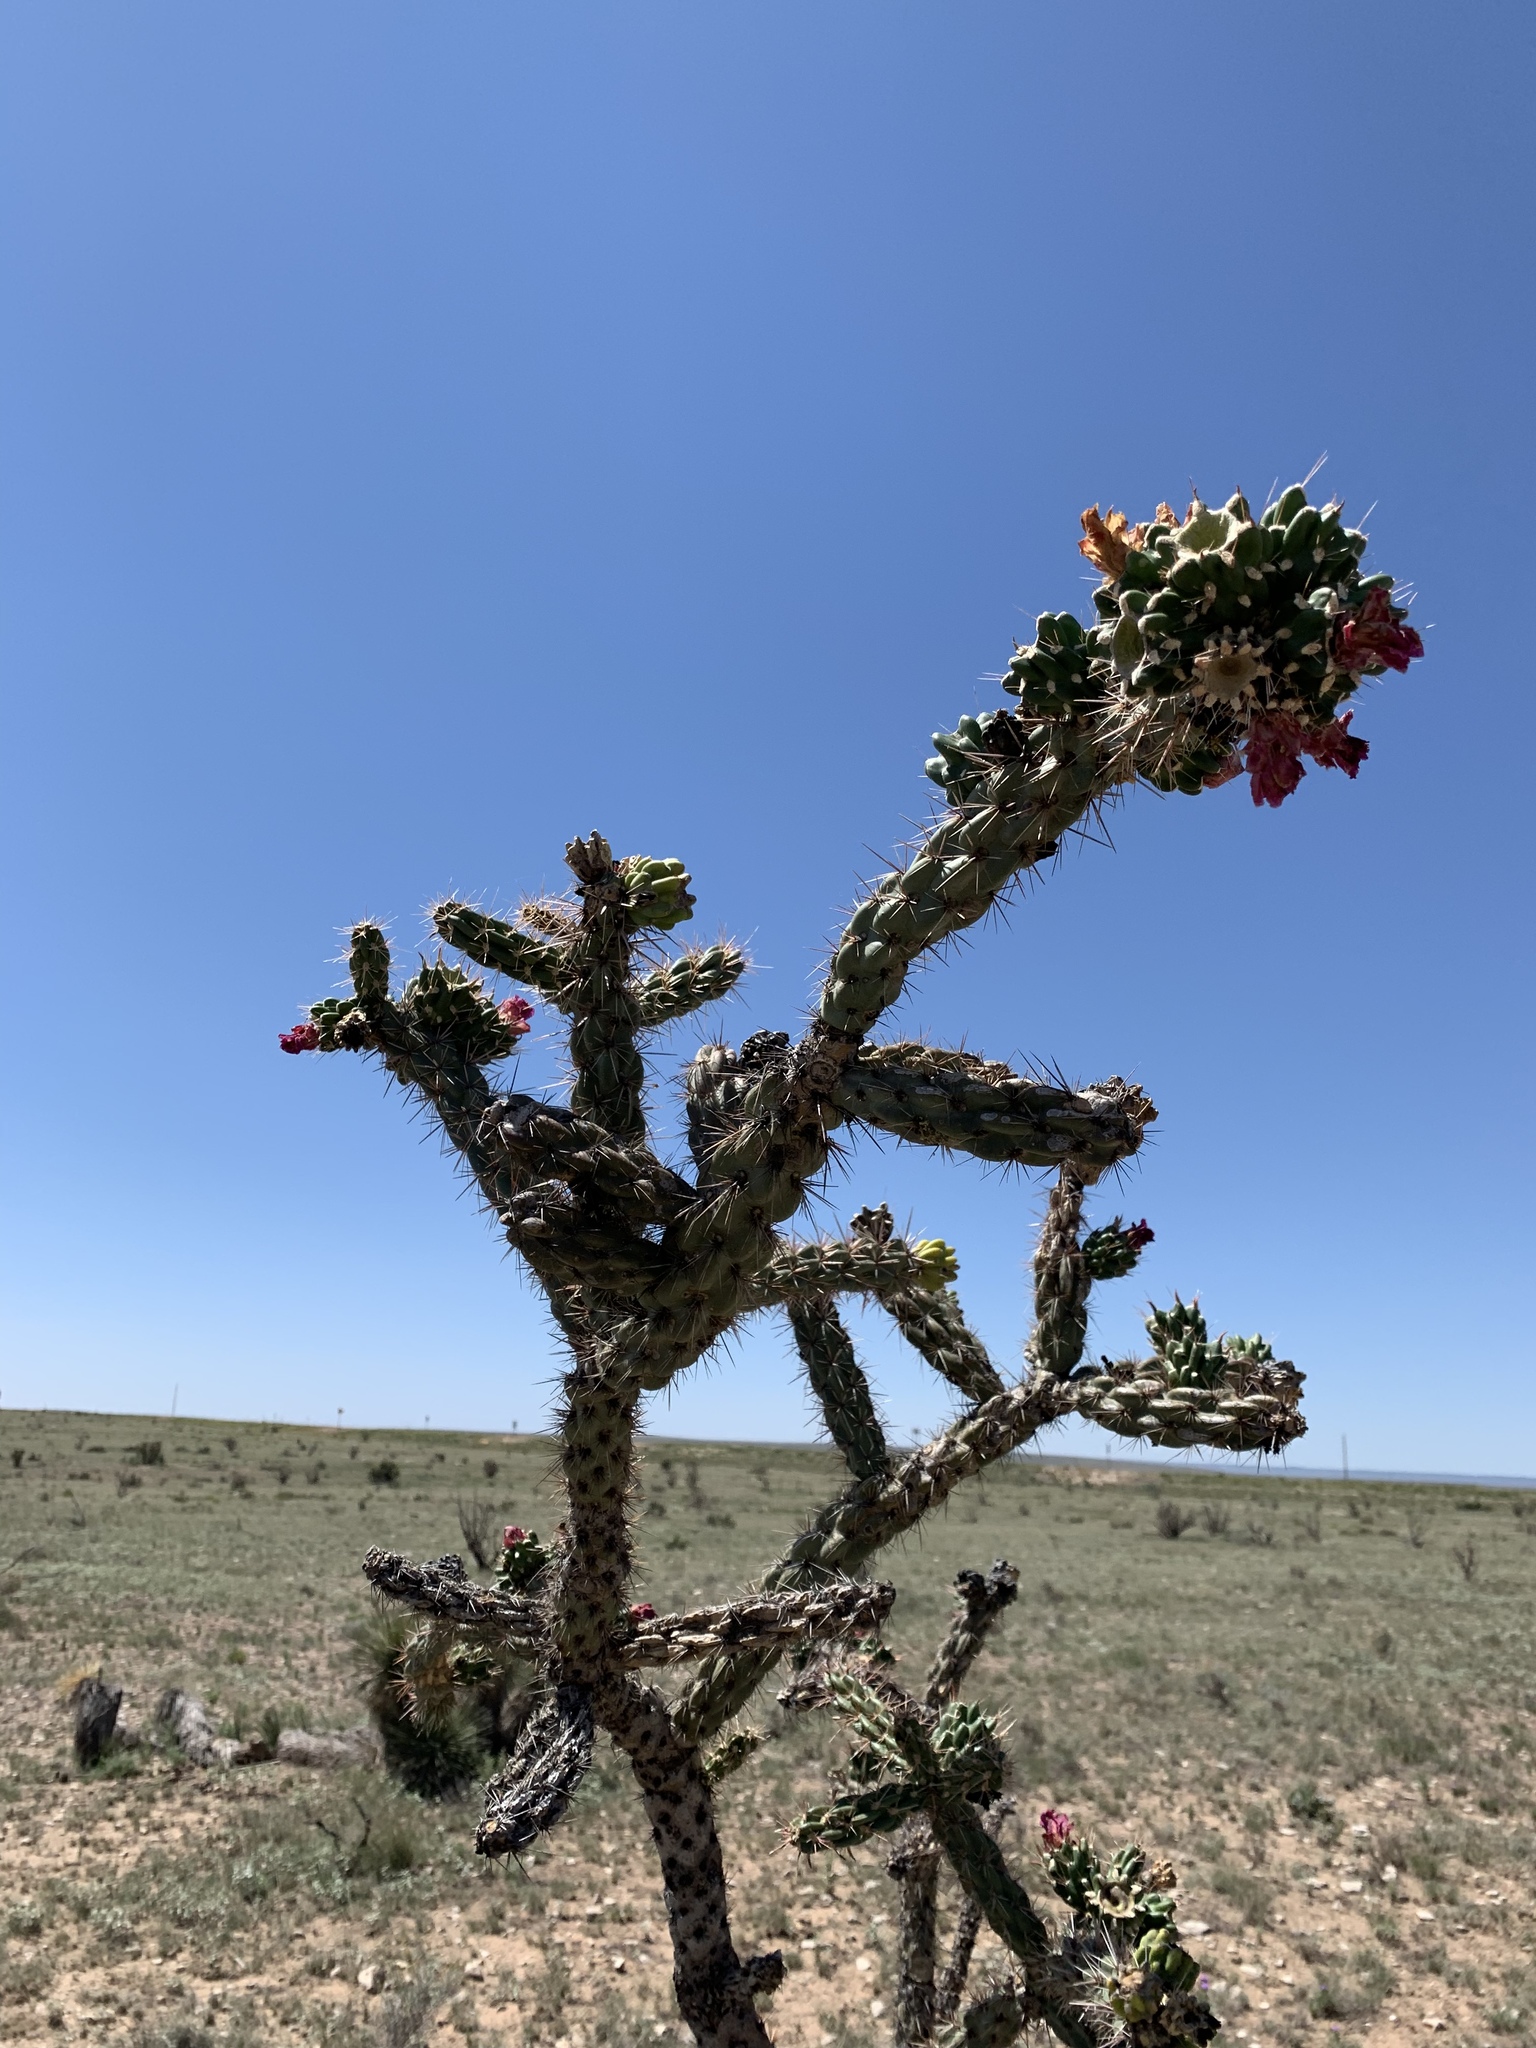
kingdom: Plantae
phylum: Tracheophyta
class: Magnoliopsida
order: Caryophyllales
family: Cactaceae
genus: Cylindropuntia
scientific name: Cylindropuntia imbricata
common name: Candelabrum cactus
